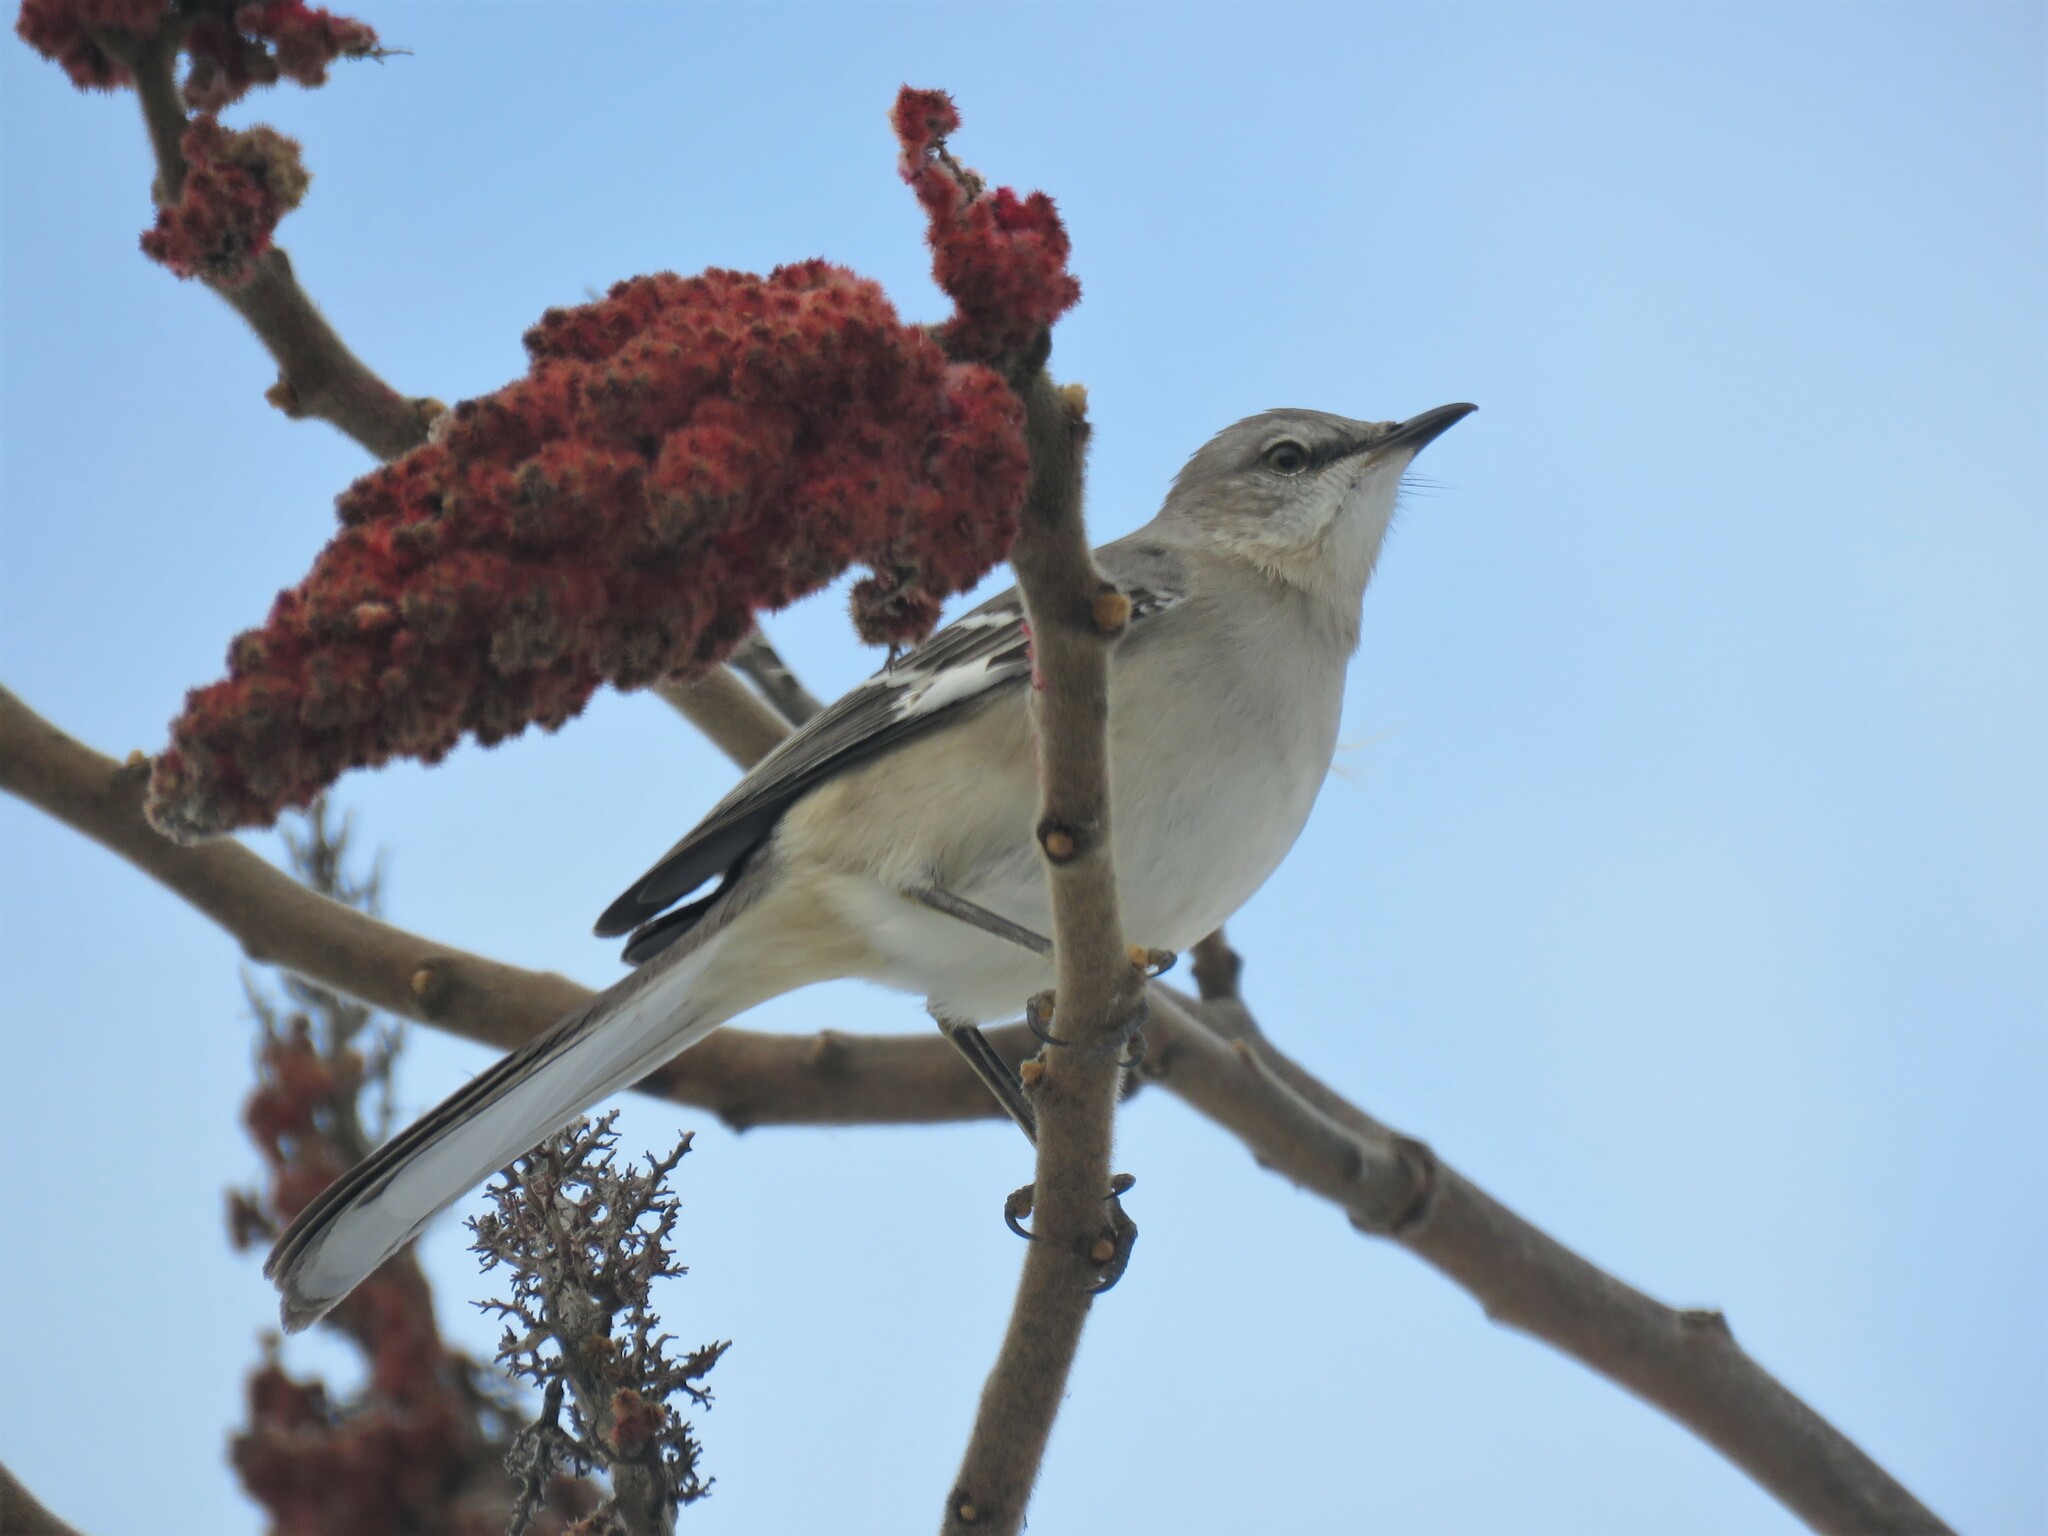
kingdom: Animalia
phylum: Chordata
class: Aves
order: Passeriformes
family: Mimidae
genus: Mimus
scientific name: Mimus polyglottos
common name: Northern mockingbird
